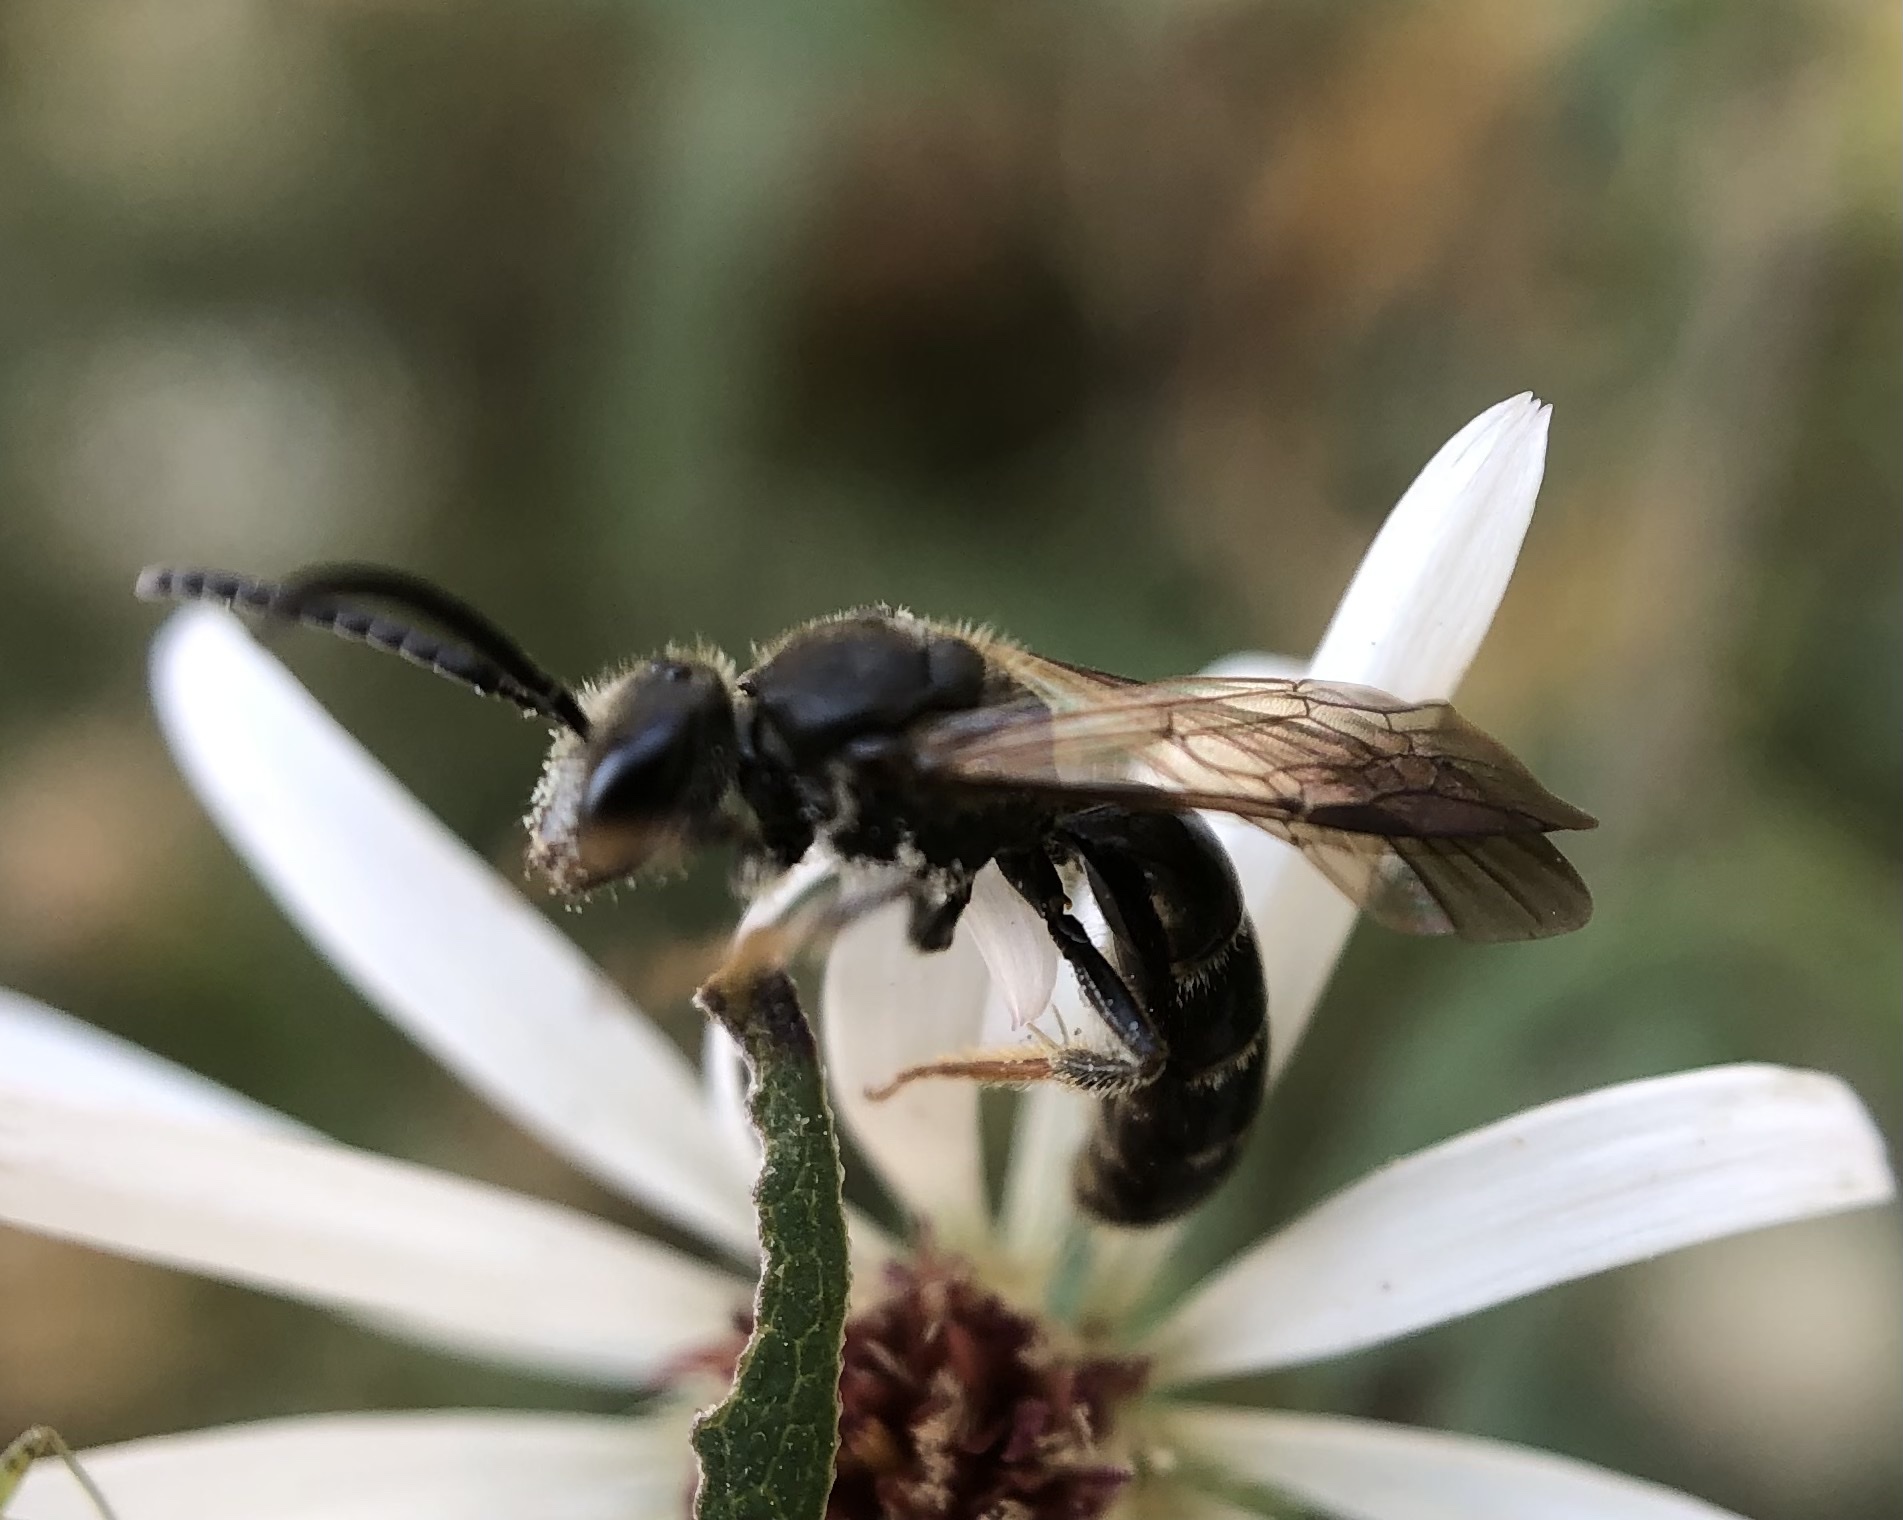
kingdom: Animalia
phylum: Arthropoda
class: Insecta
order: Hymenoptera
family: Halictidae
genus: Lasioglossum
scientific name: Lasioglossum fuscipenne
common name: Brown-winged sweat bee
